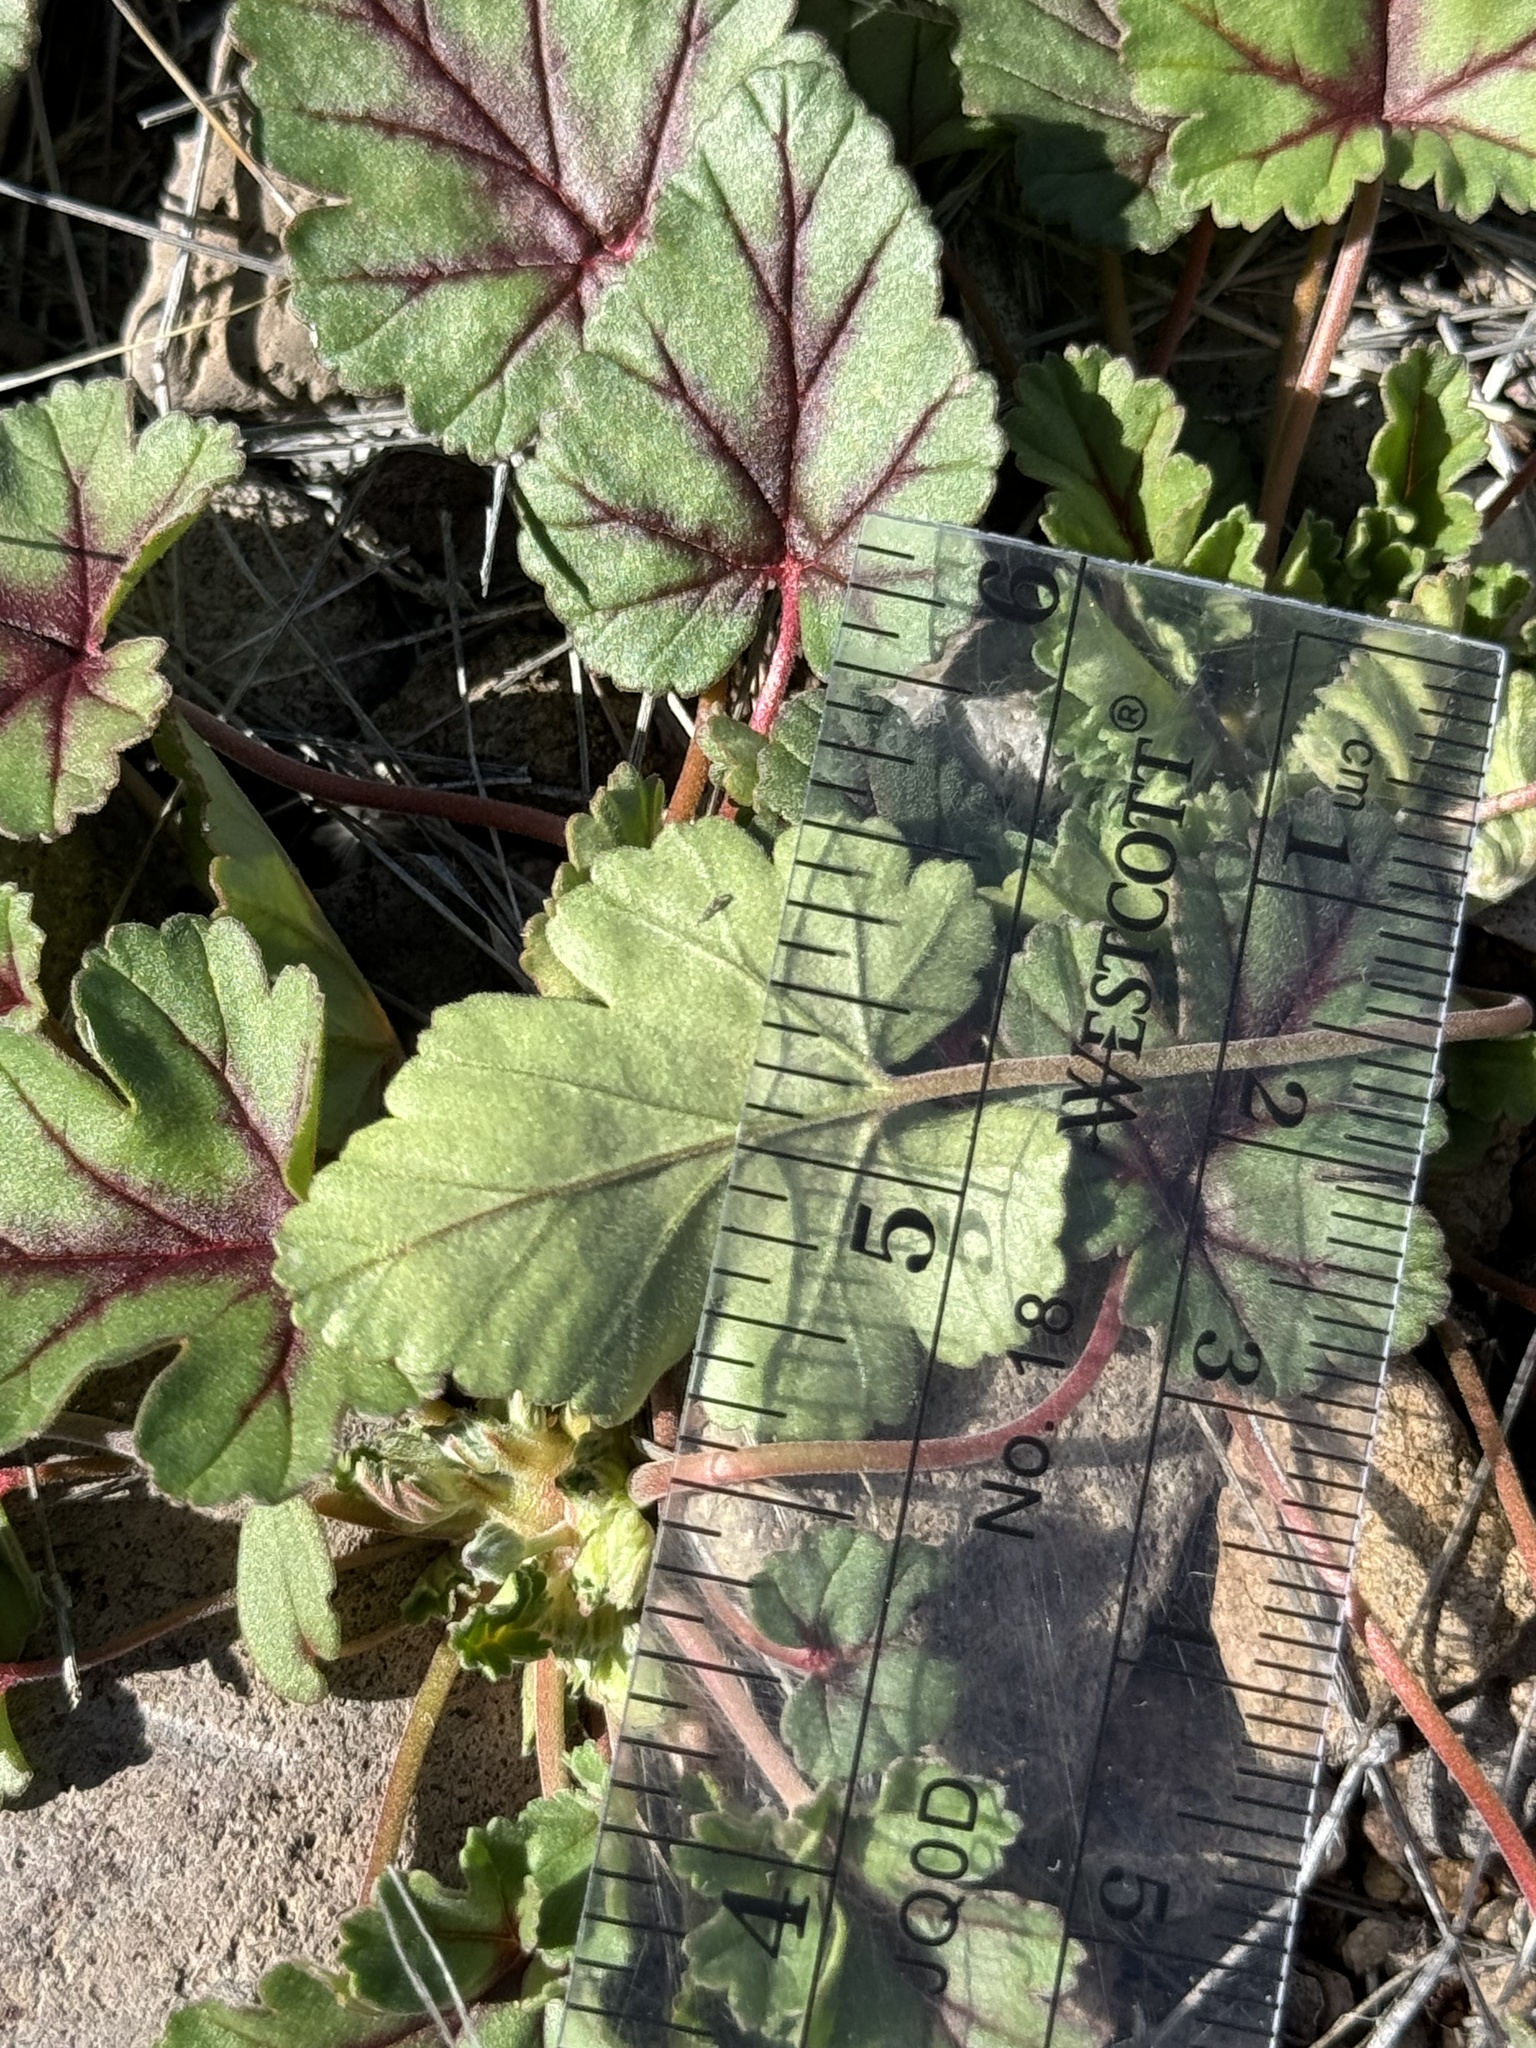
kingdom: Plantae
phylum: Tracheophyta
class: Magnoliopsida
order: Geraniales
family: Geraniaceae
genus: Erodium
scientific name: Erodium texanum
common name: Texas stork's-bill
